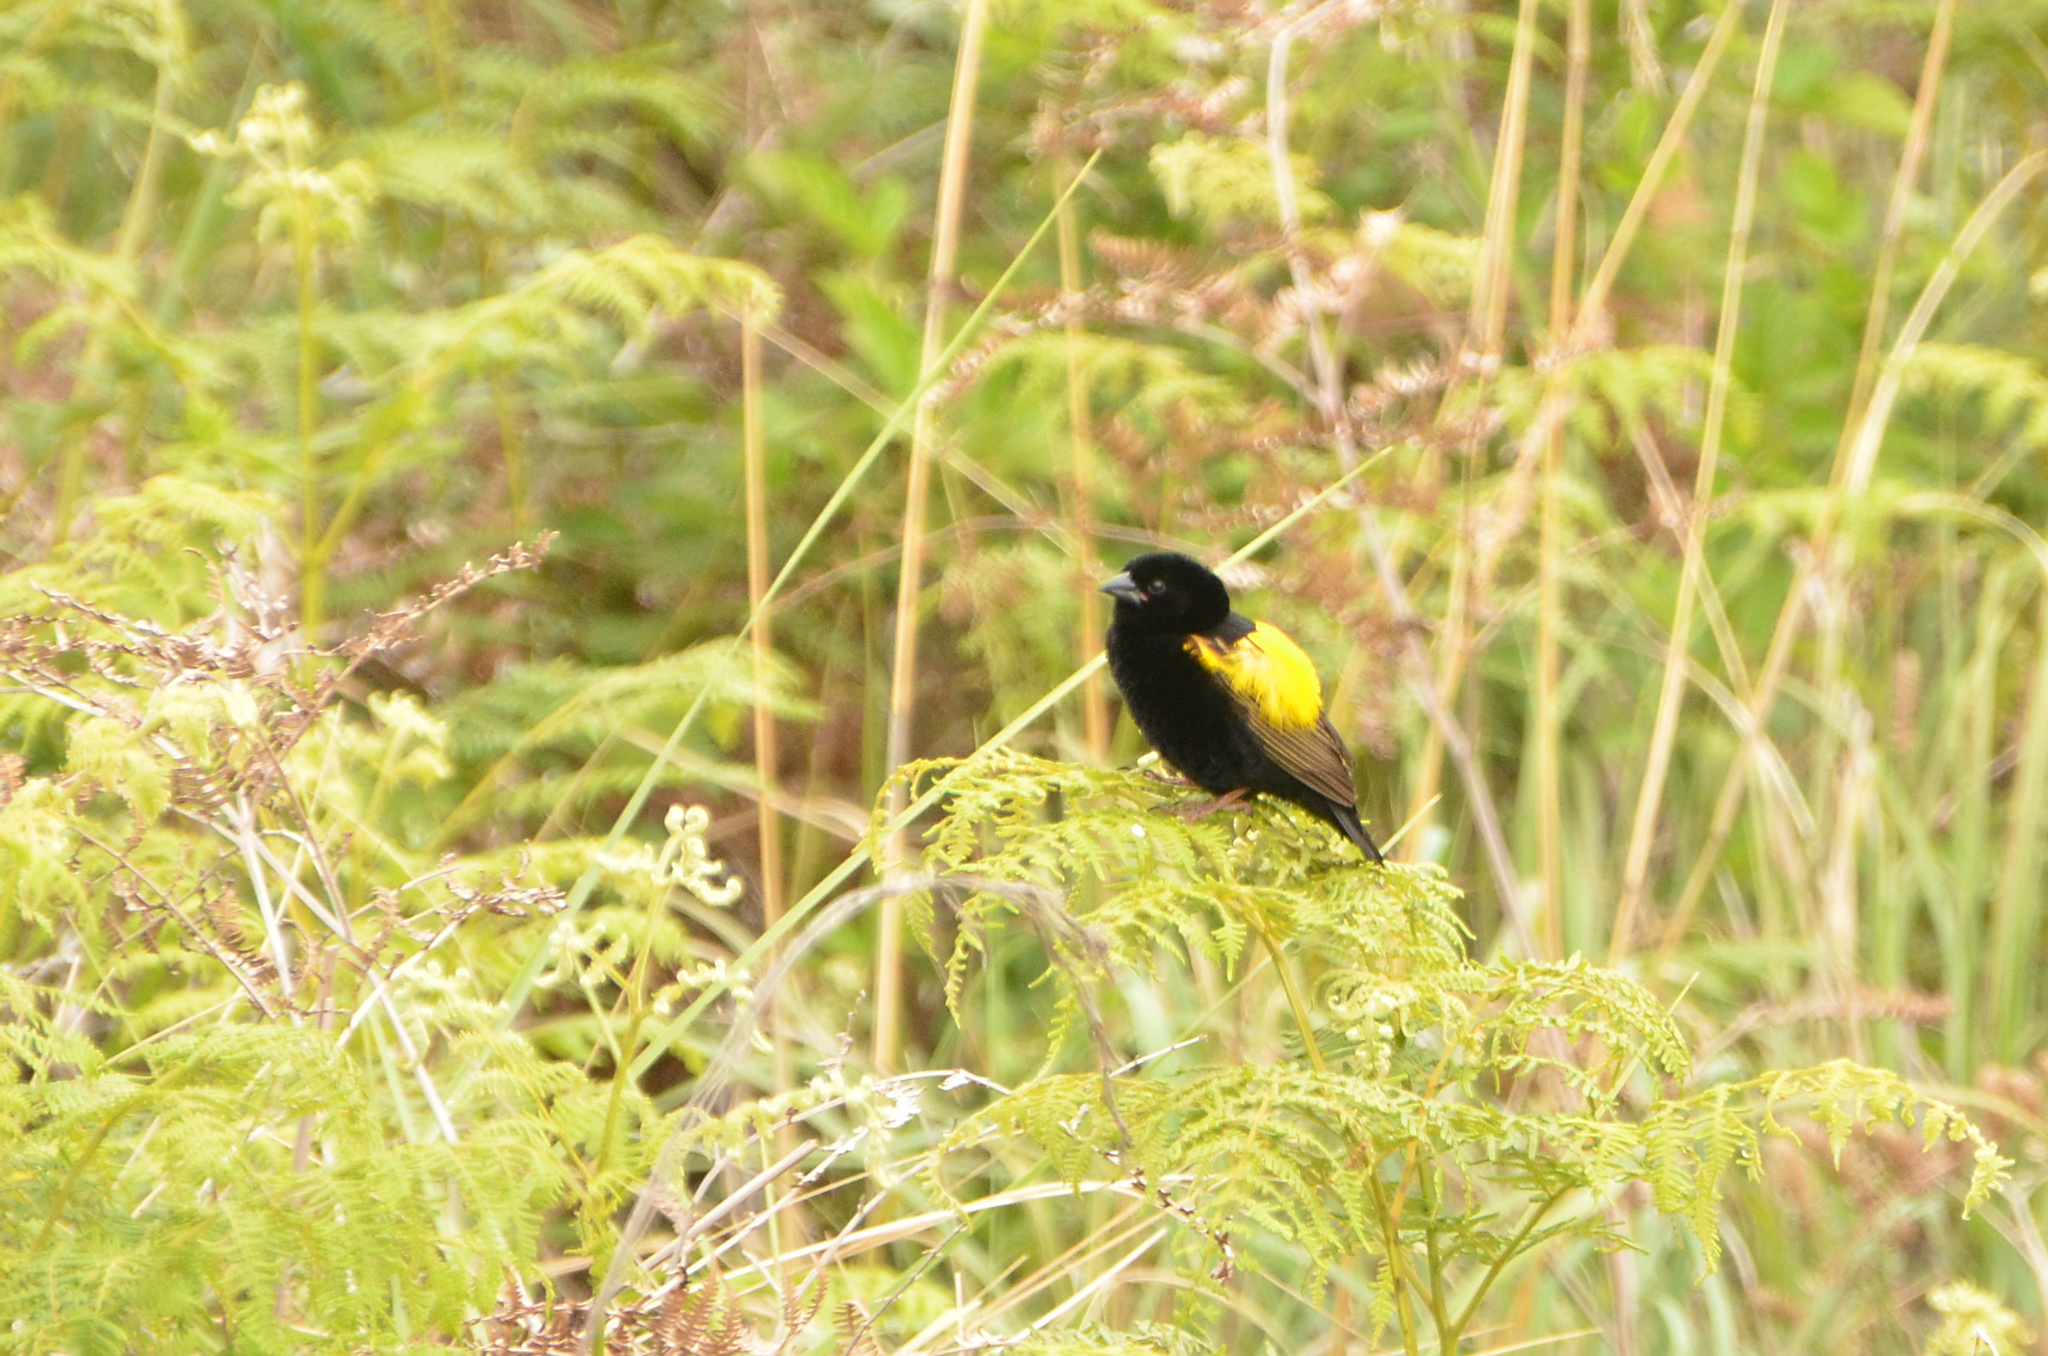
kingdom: Animalia
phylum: Chordata
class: Aves
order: Passeriformes
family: Ploceidae
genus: Euplectes
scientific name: Euplectes capensis
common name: Yellow bishop
